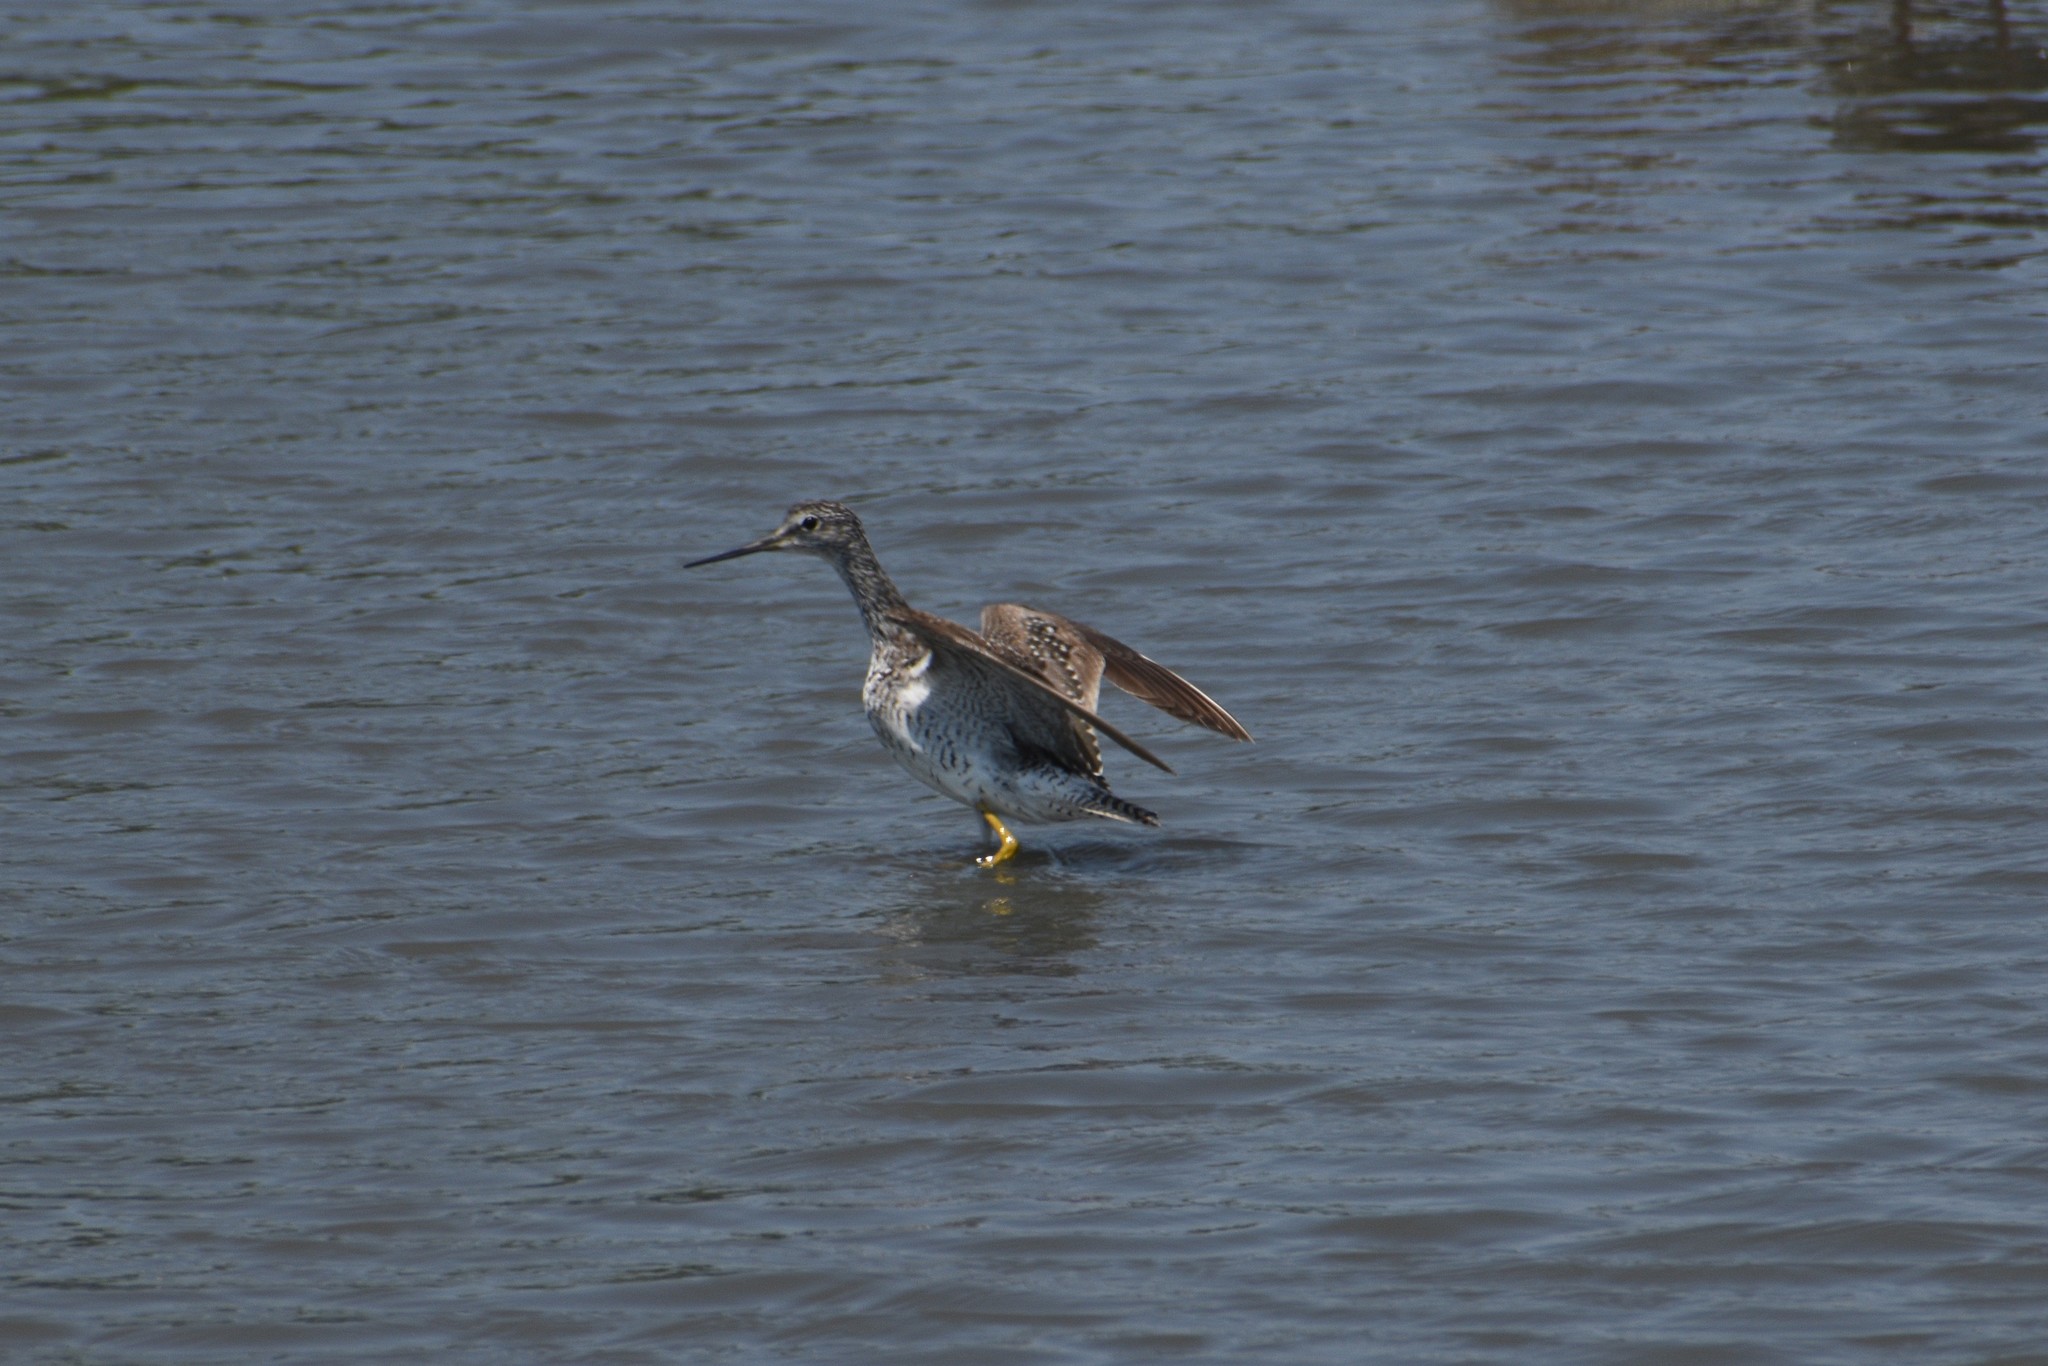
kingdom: Animalia
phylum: Chordata
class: Aves
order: Charadriiformes
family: Scolopacidae
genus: Tringa
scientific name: Tringa melanoleuca
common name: Greater yellowlegs
